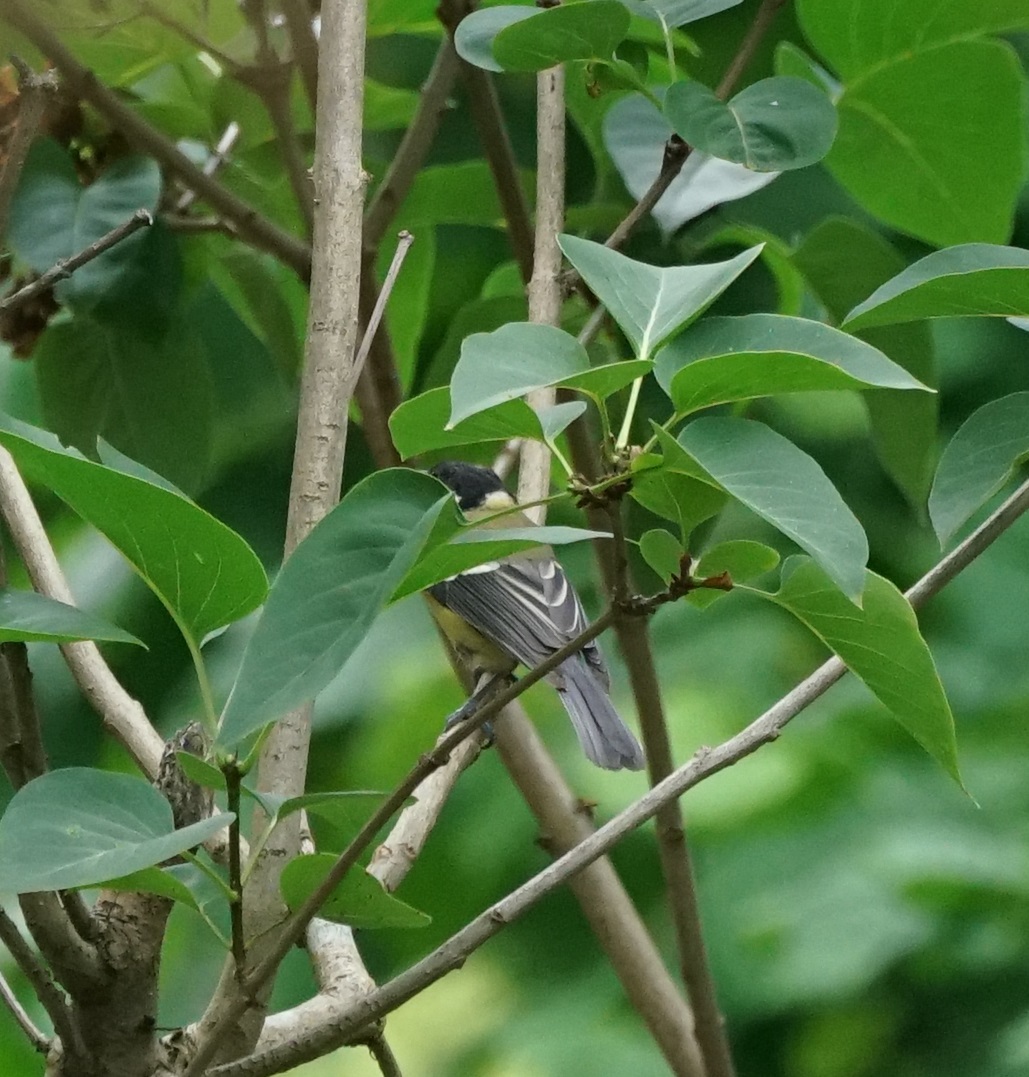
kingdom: Animalia
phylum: Chordata
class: Aves
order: Passeriformes
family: Paridae
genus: Parus
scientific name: Parus major
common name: Great tit
